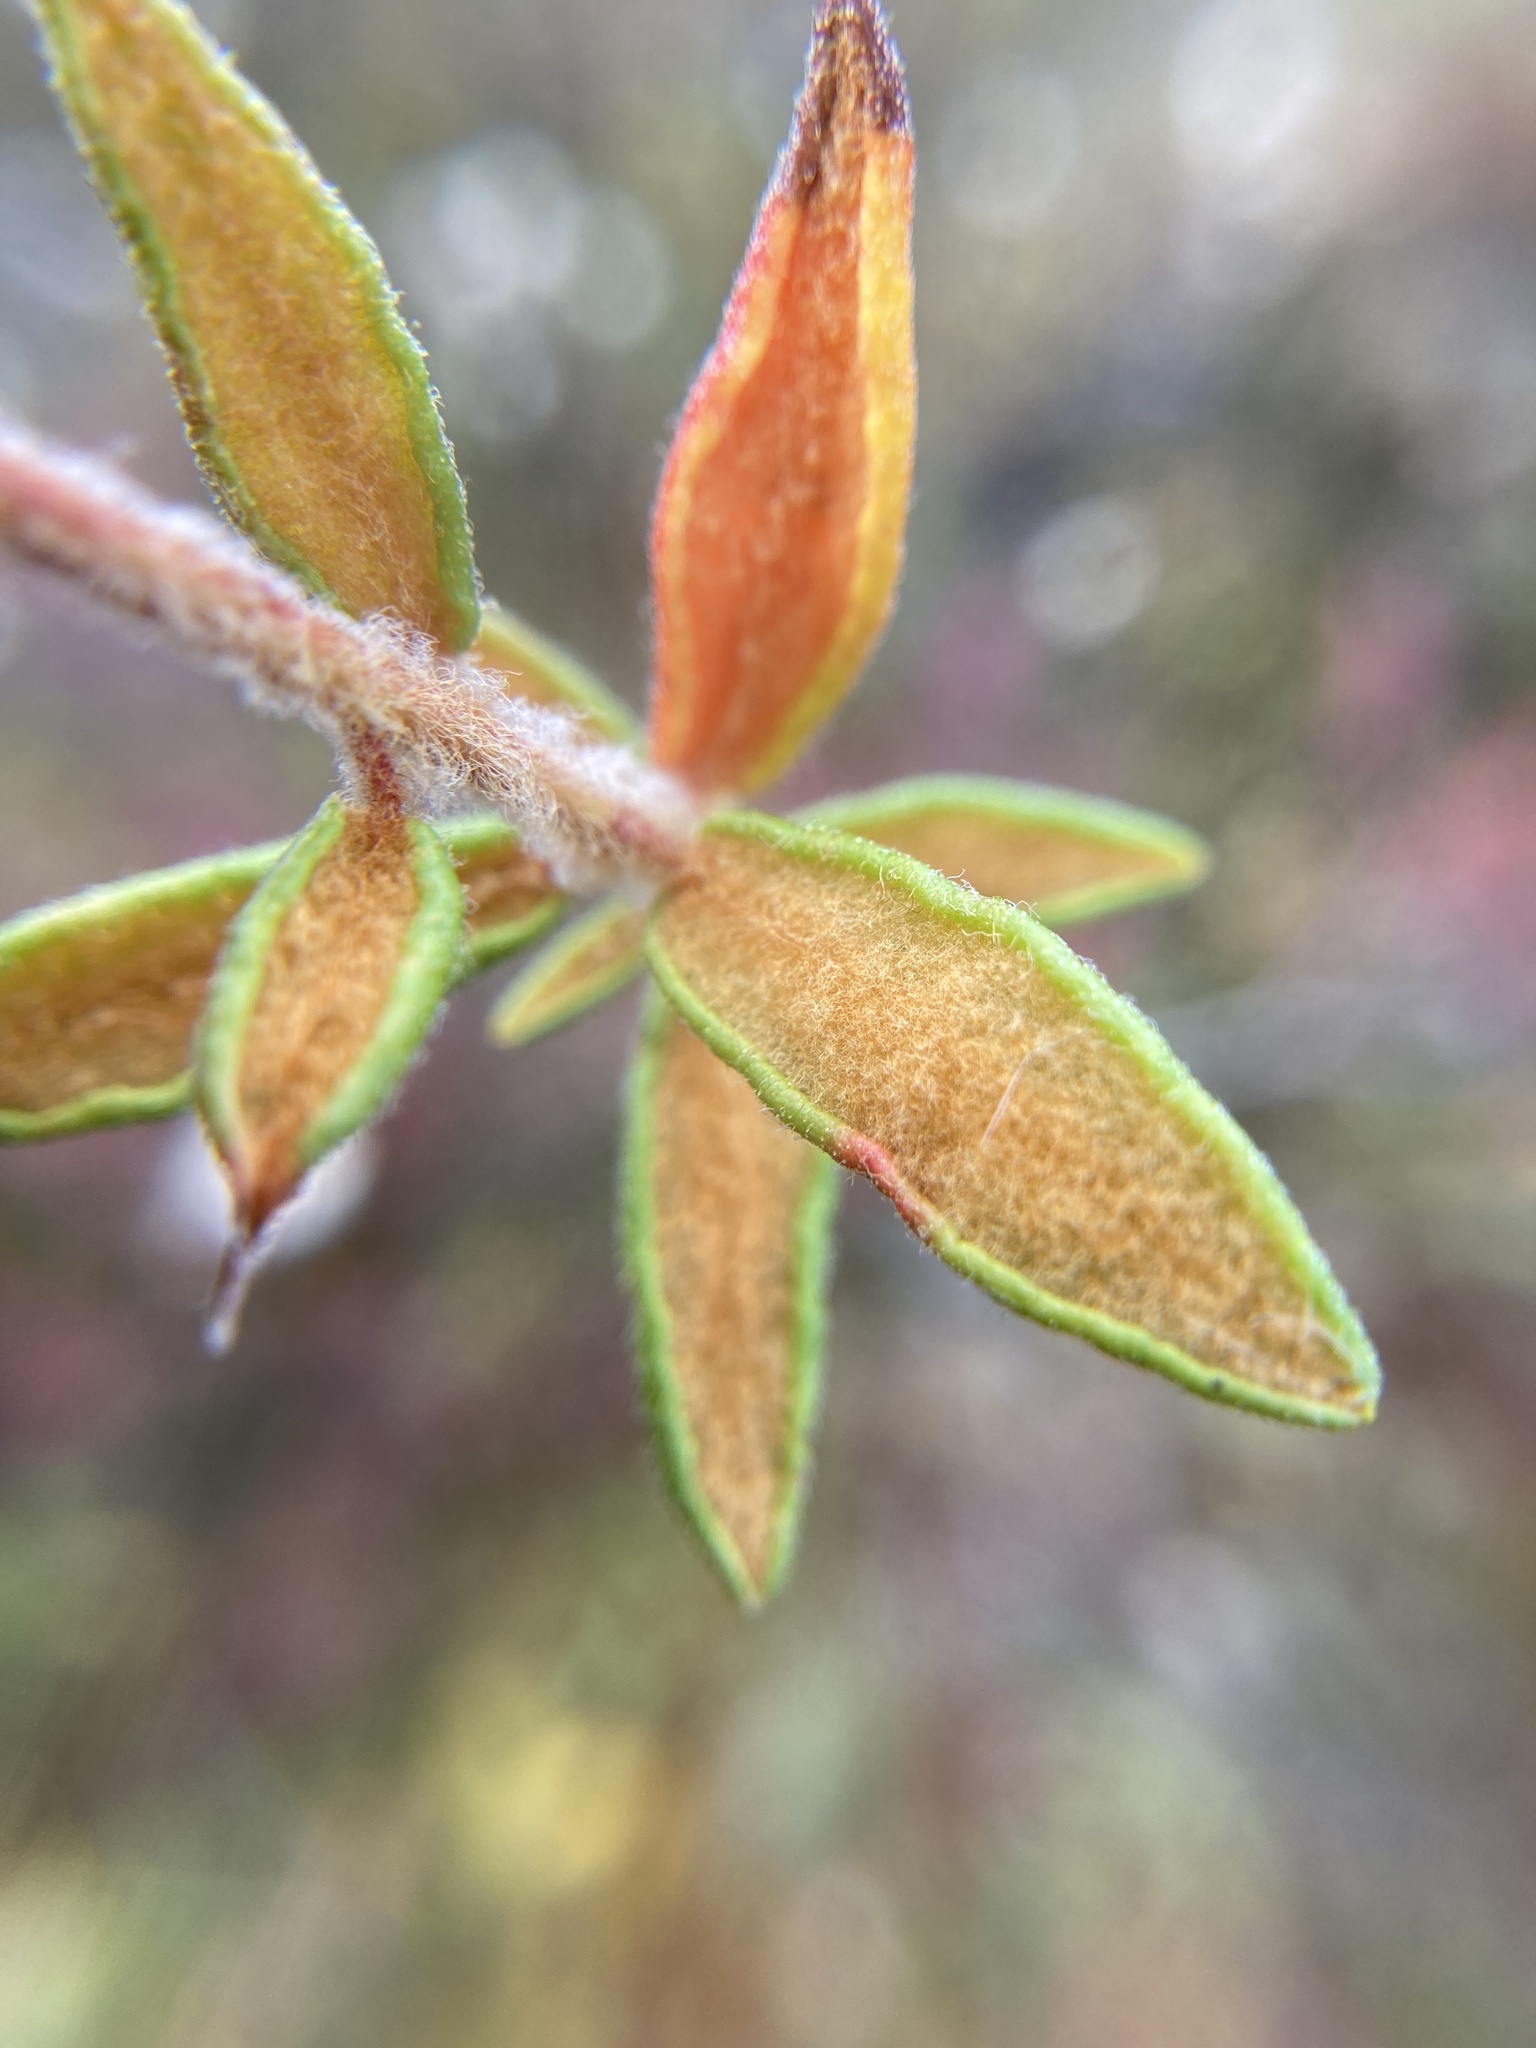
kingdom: Plantae
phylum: Tracheophyta
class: Magnoliopsida
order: Ericales
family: Ericaceae
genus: Rhododendron
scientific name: Rhododendron groenlandicum
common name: Bog labrador tea
